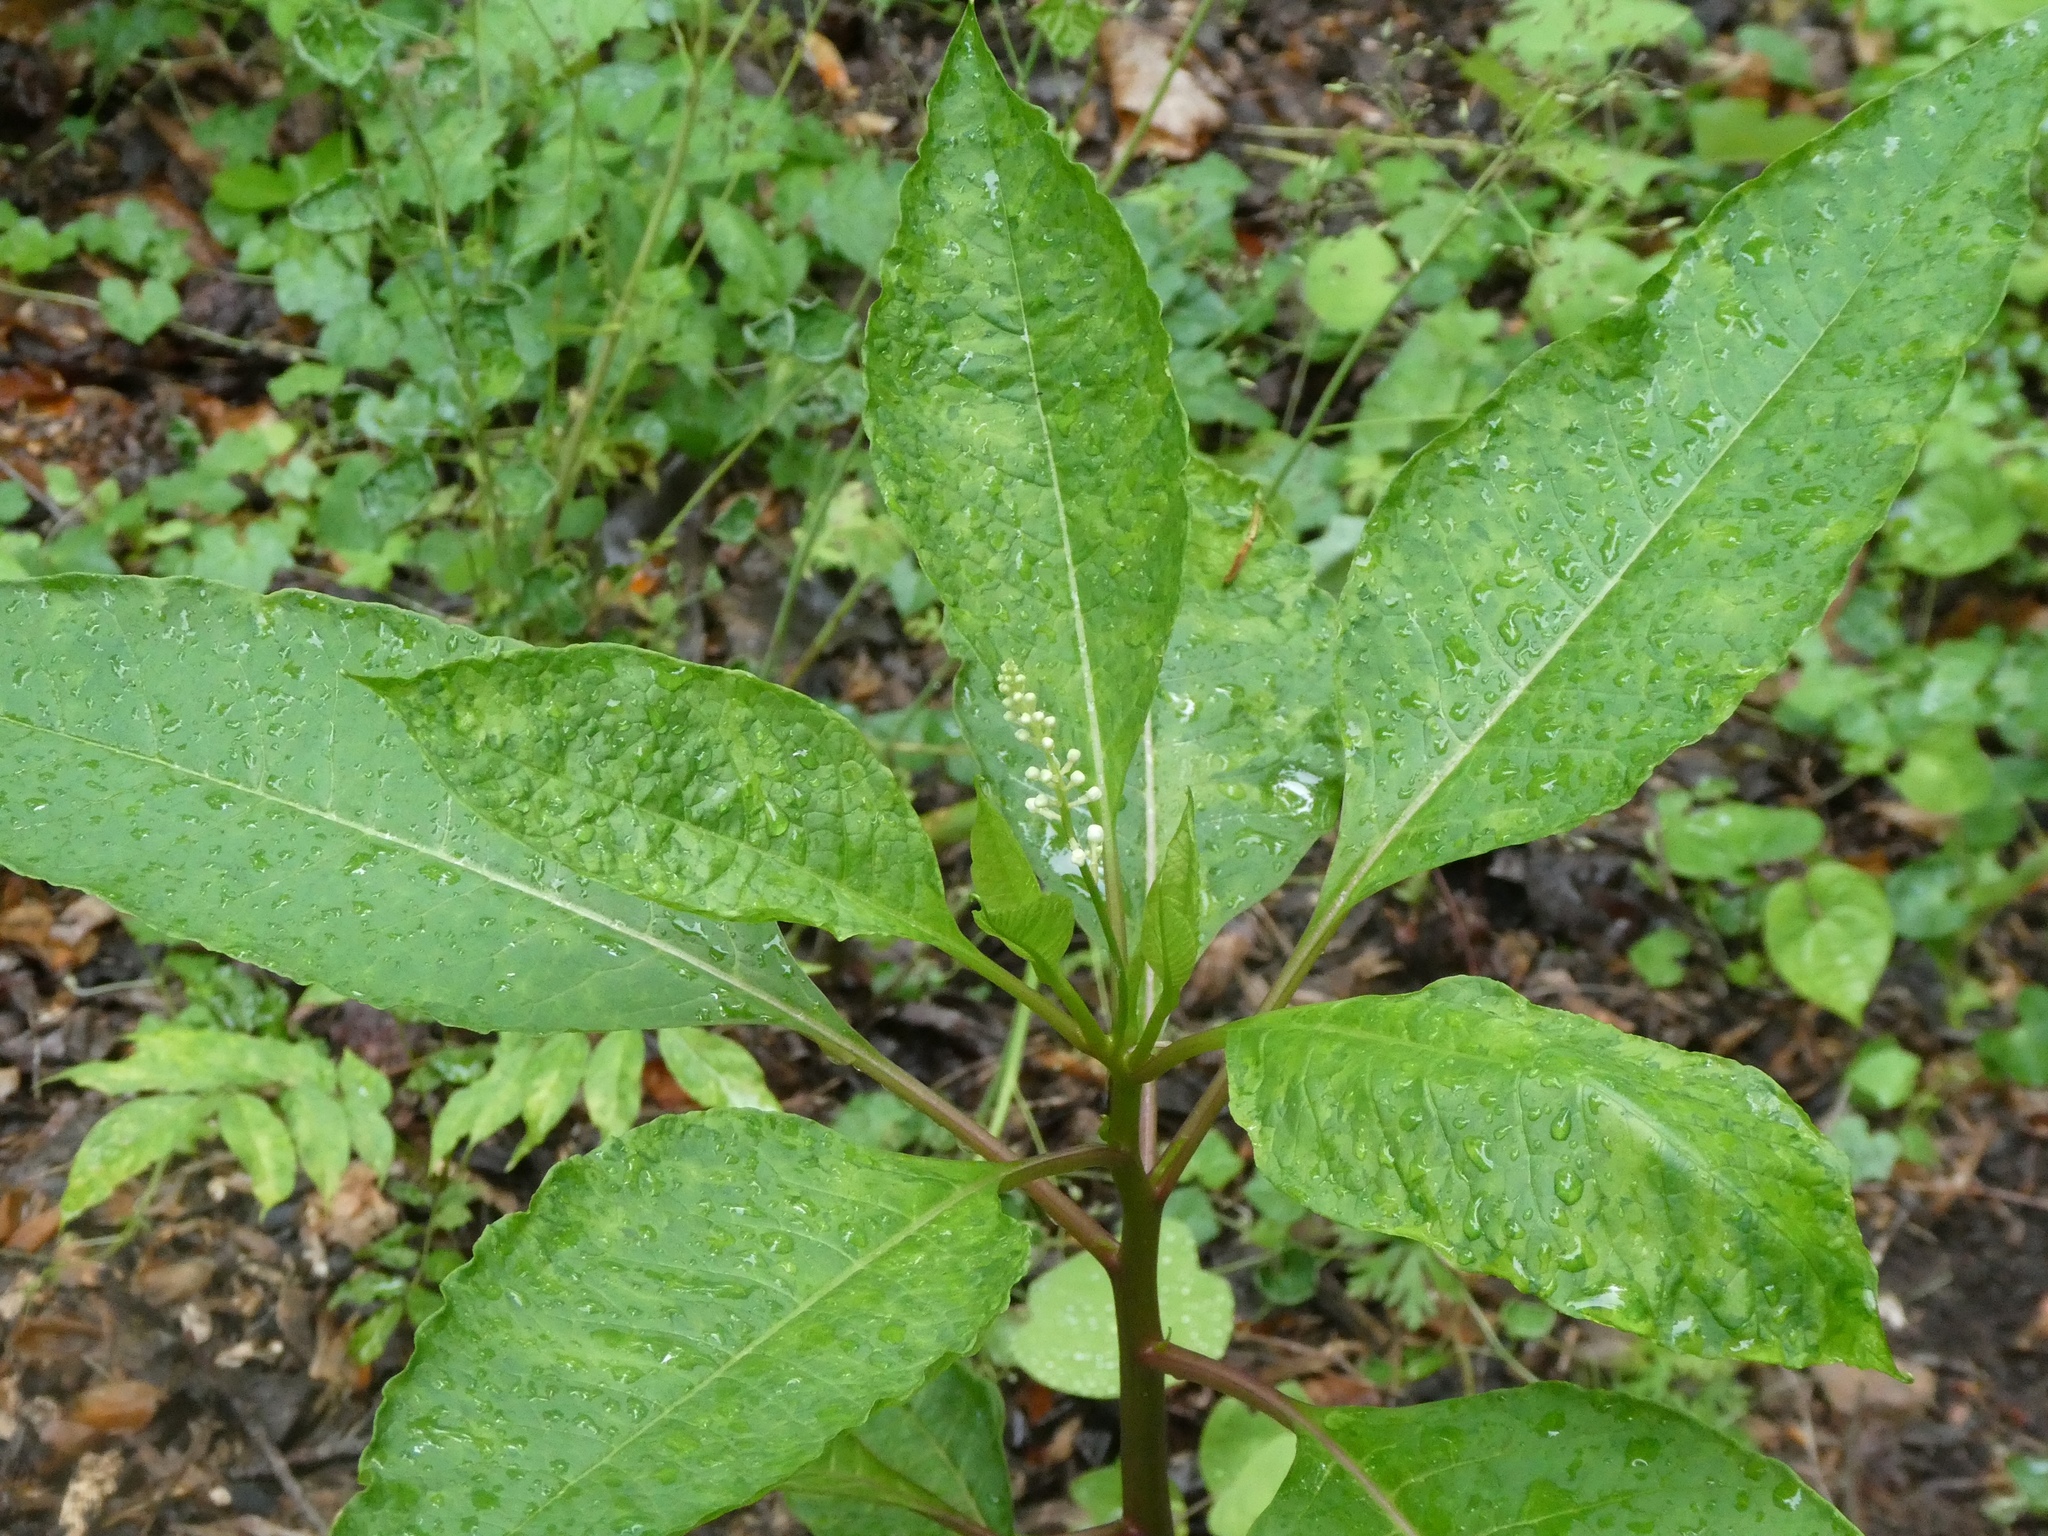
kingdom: Plantae
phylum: Tracheophyta
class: Magnoliopsida
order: Caryophyllales
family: Phytolaccaceae
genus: Phytolacca
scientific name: Phytolacca americana
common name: American pokeweed
